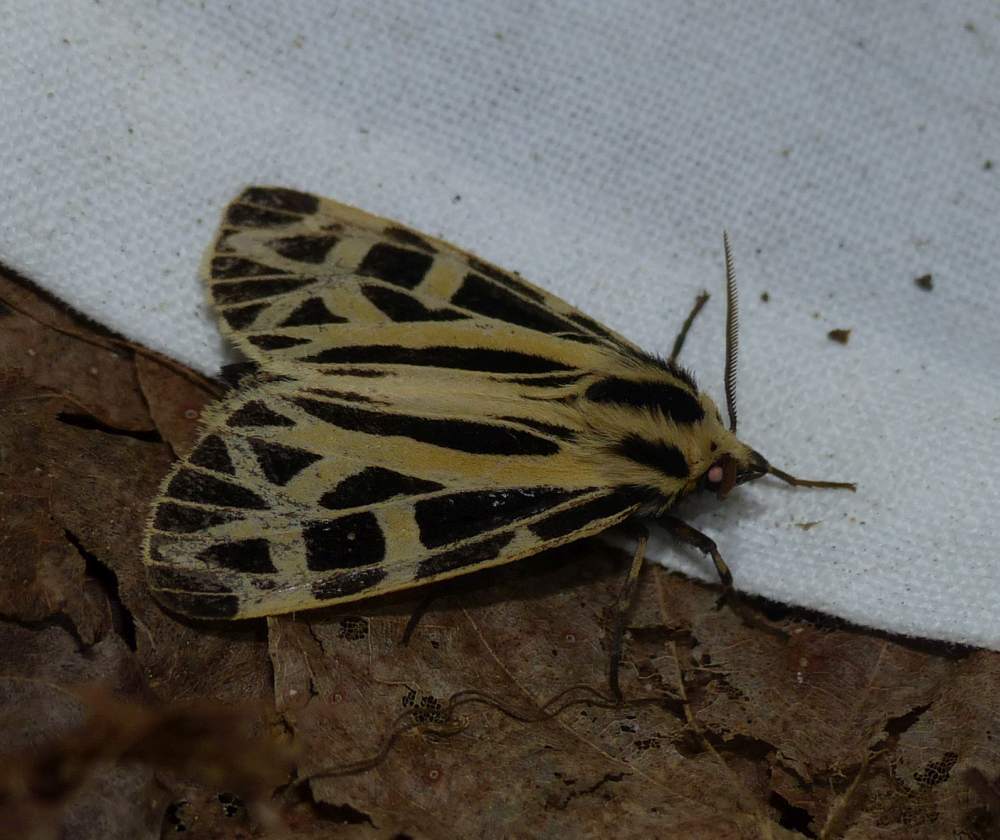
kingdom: Animalia
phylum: Arthropoda
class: Insecta
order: Lepidoptera
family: Erebidae
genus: Apantesis
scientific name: Apantesis
